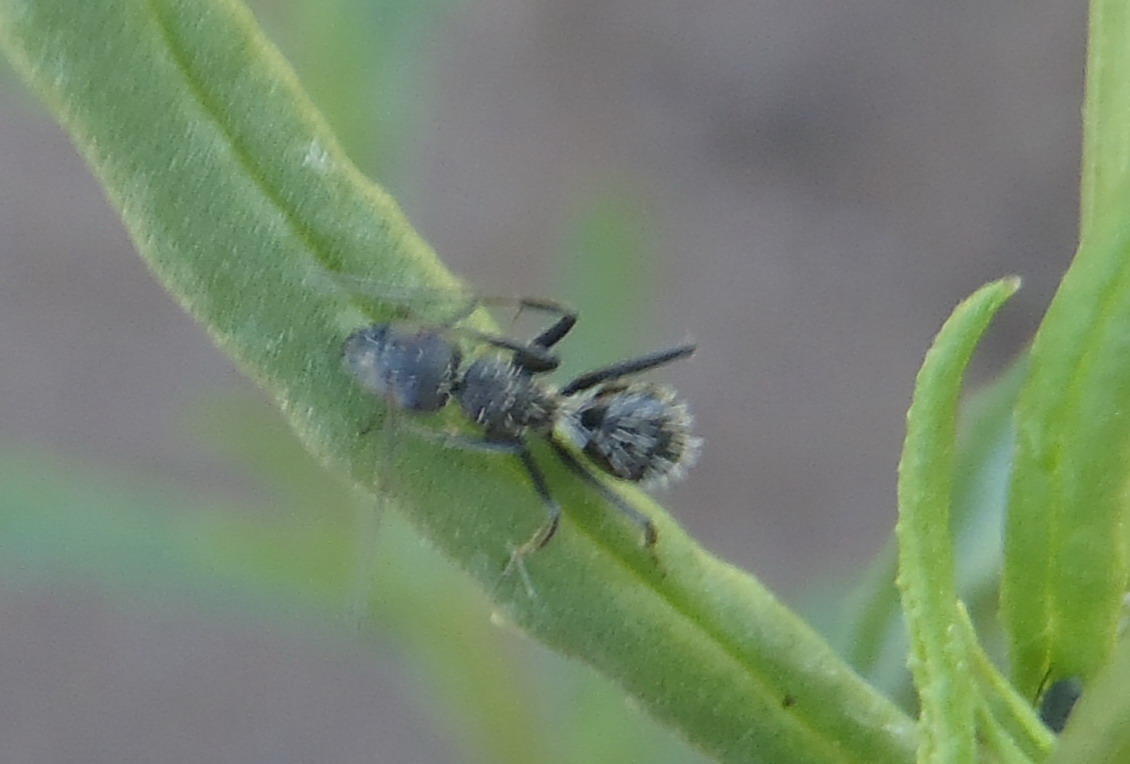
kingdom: Animalia
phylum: Arthropoda
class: Insecta
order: Hymenoptera
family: Formicidae
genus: Camponotus
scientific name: Camponotus niveosetosus
